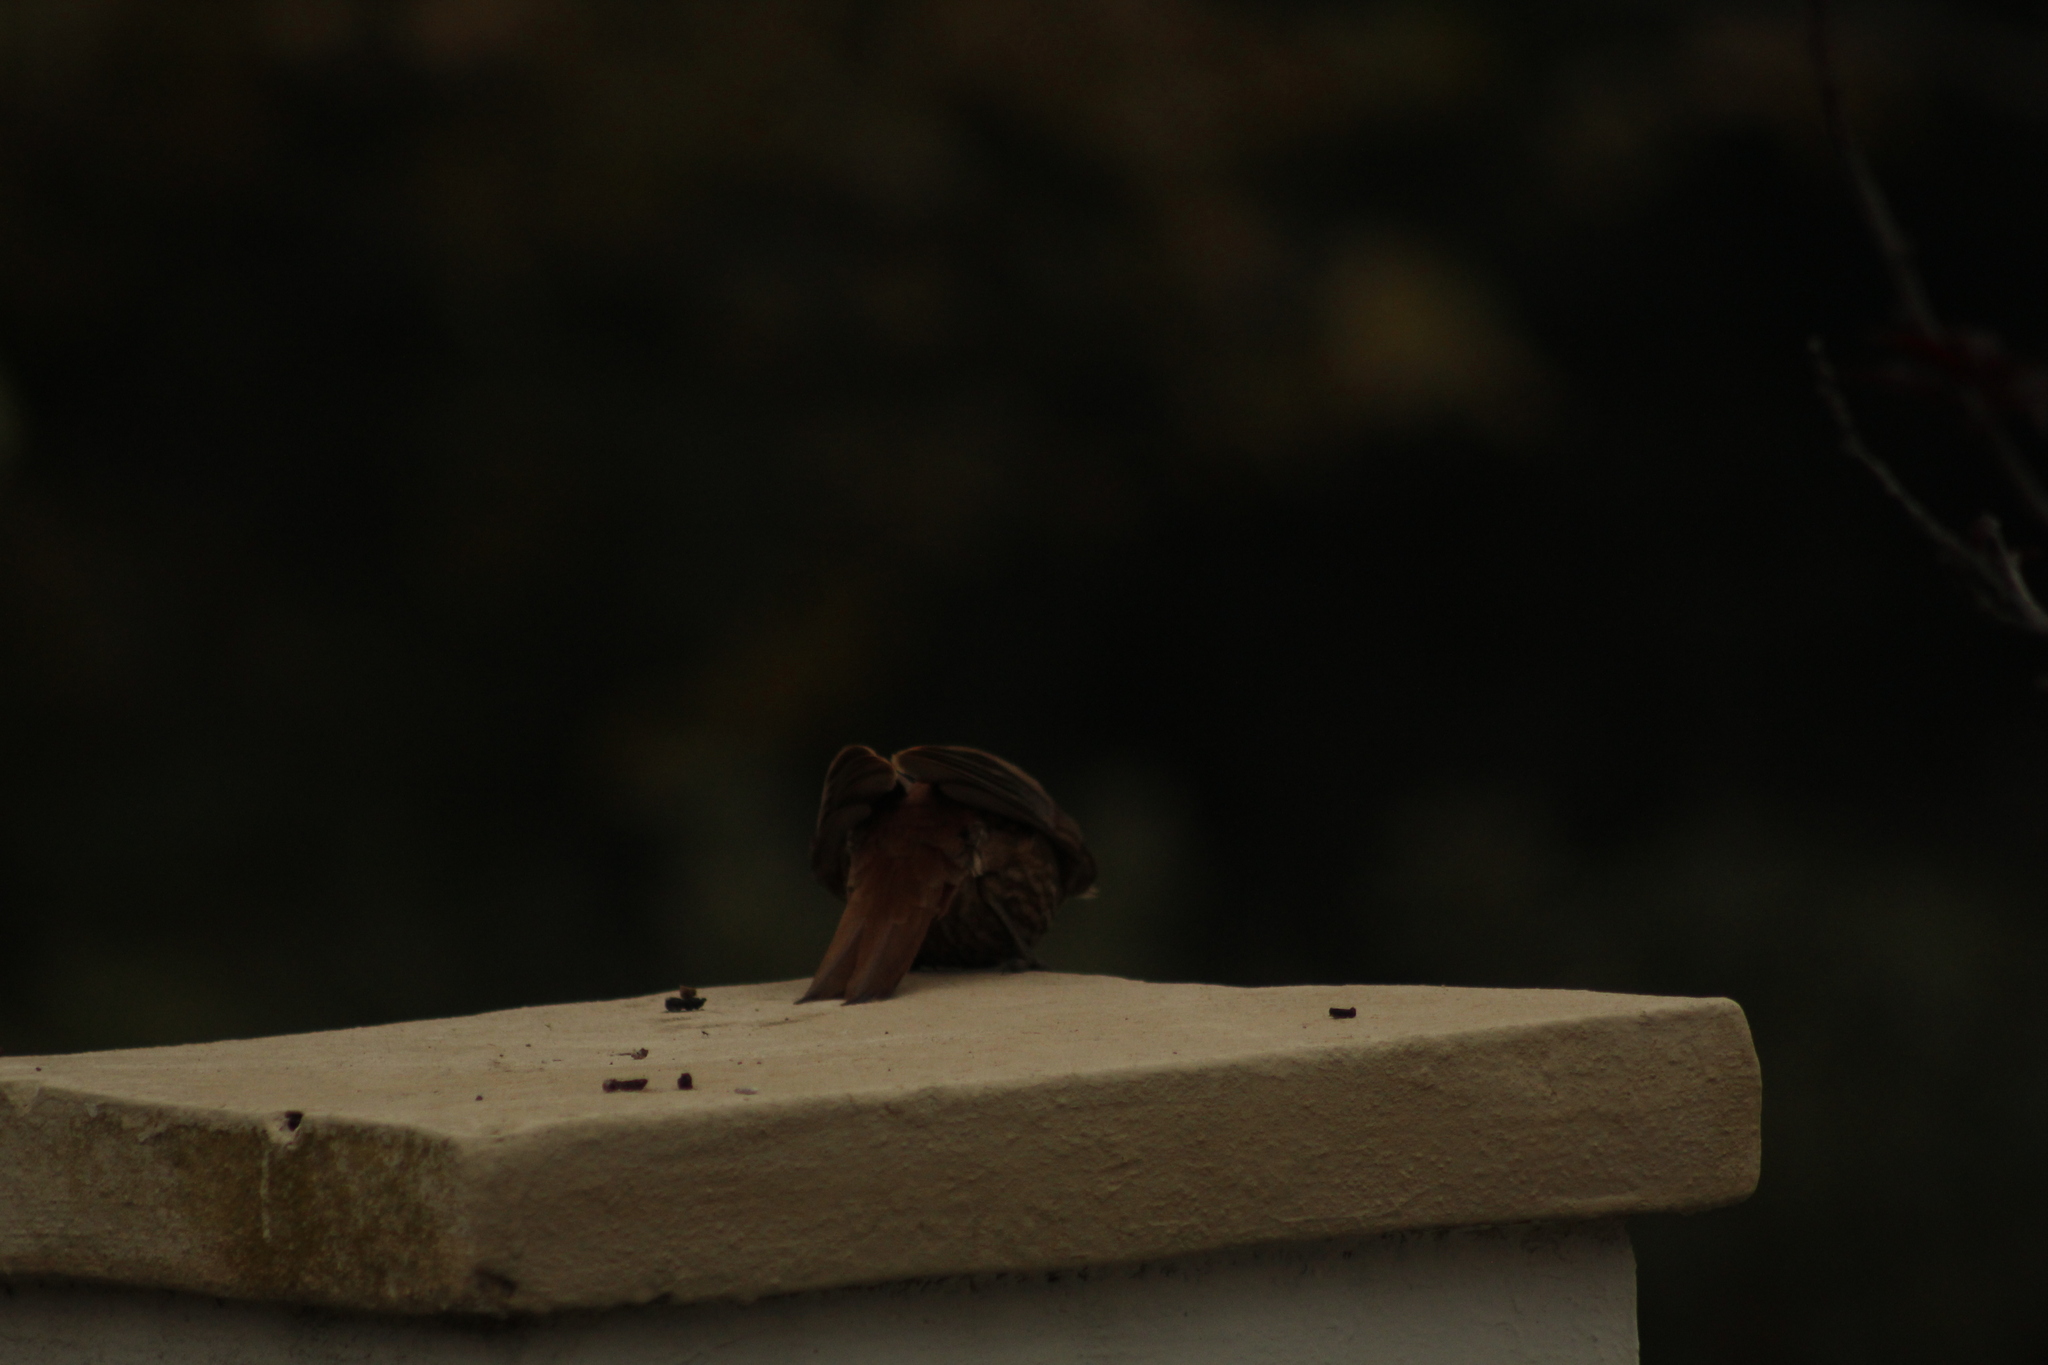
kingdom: Animalia
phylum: Chordata
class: Aves
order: Passeriformes
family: Furnariidae
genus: Drymornis
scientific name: Drymornis bridgesii
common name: Scimitar-billed woodcreeper
